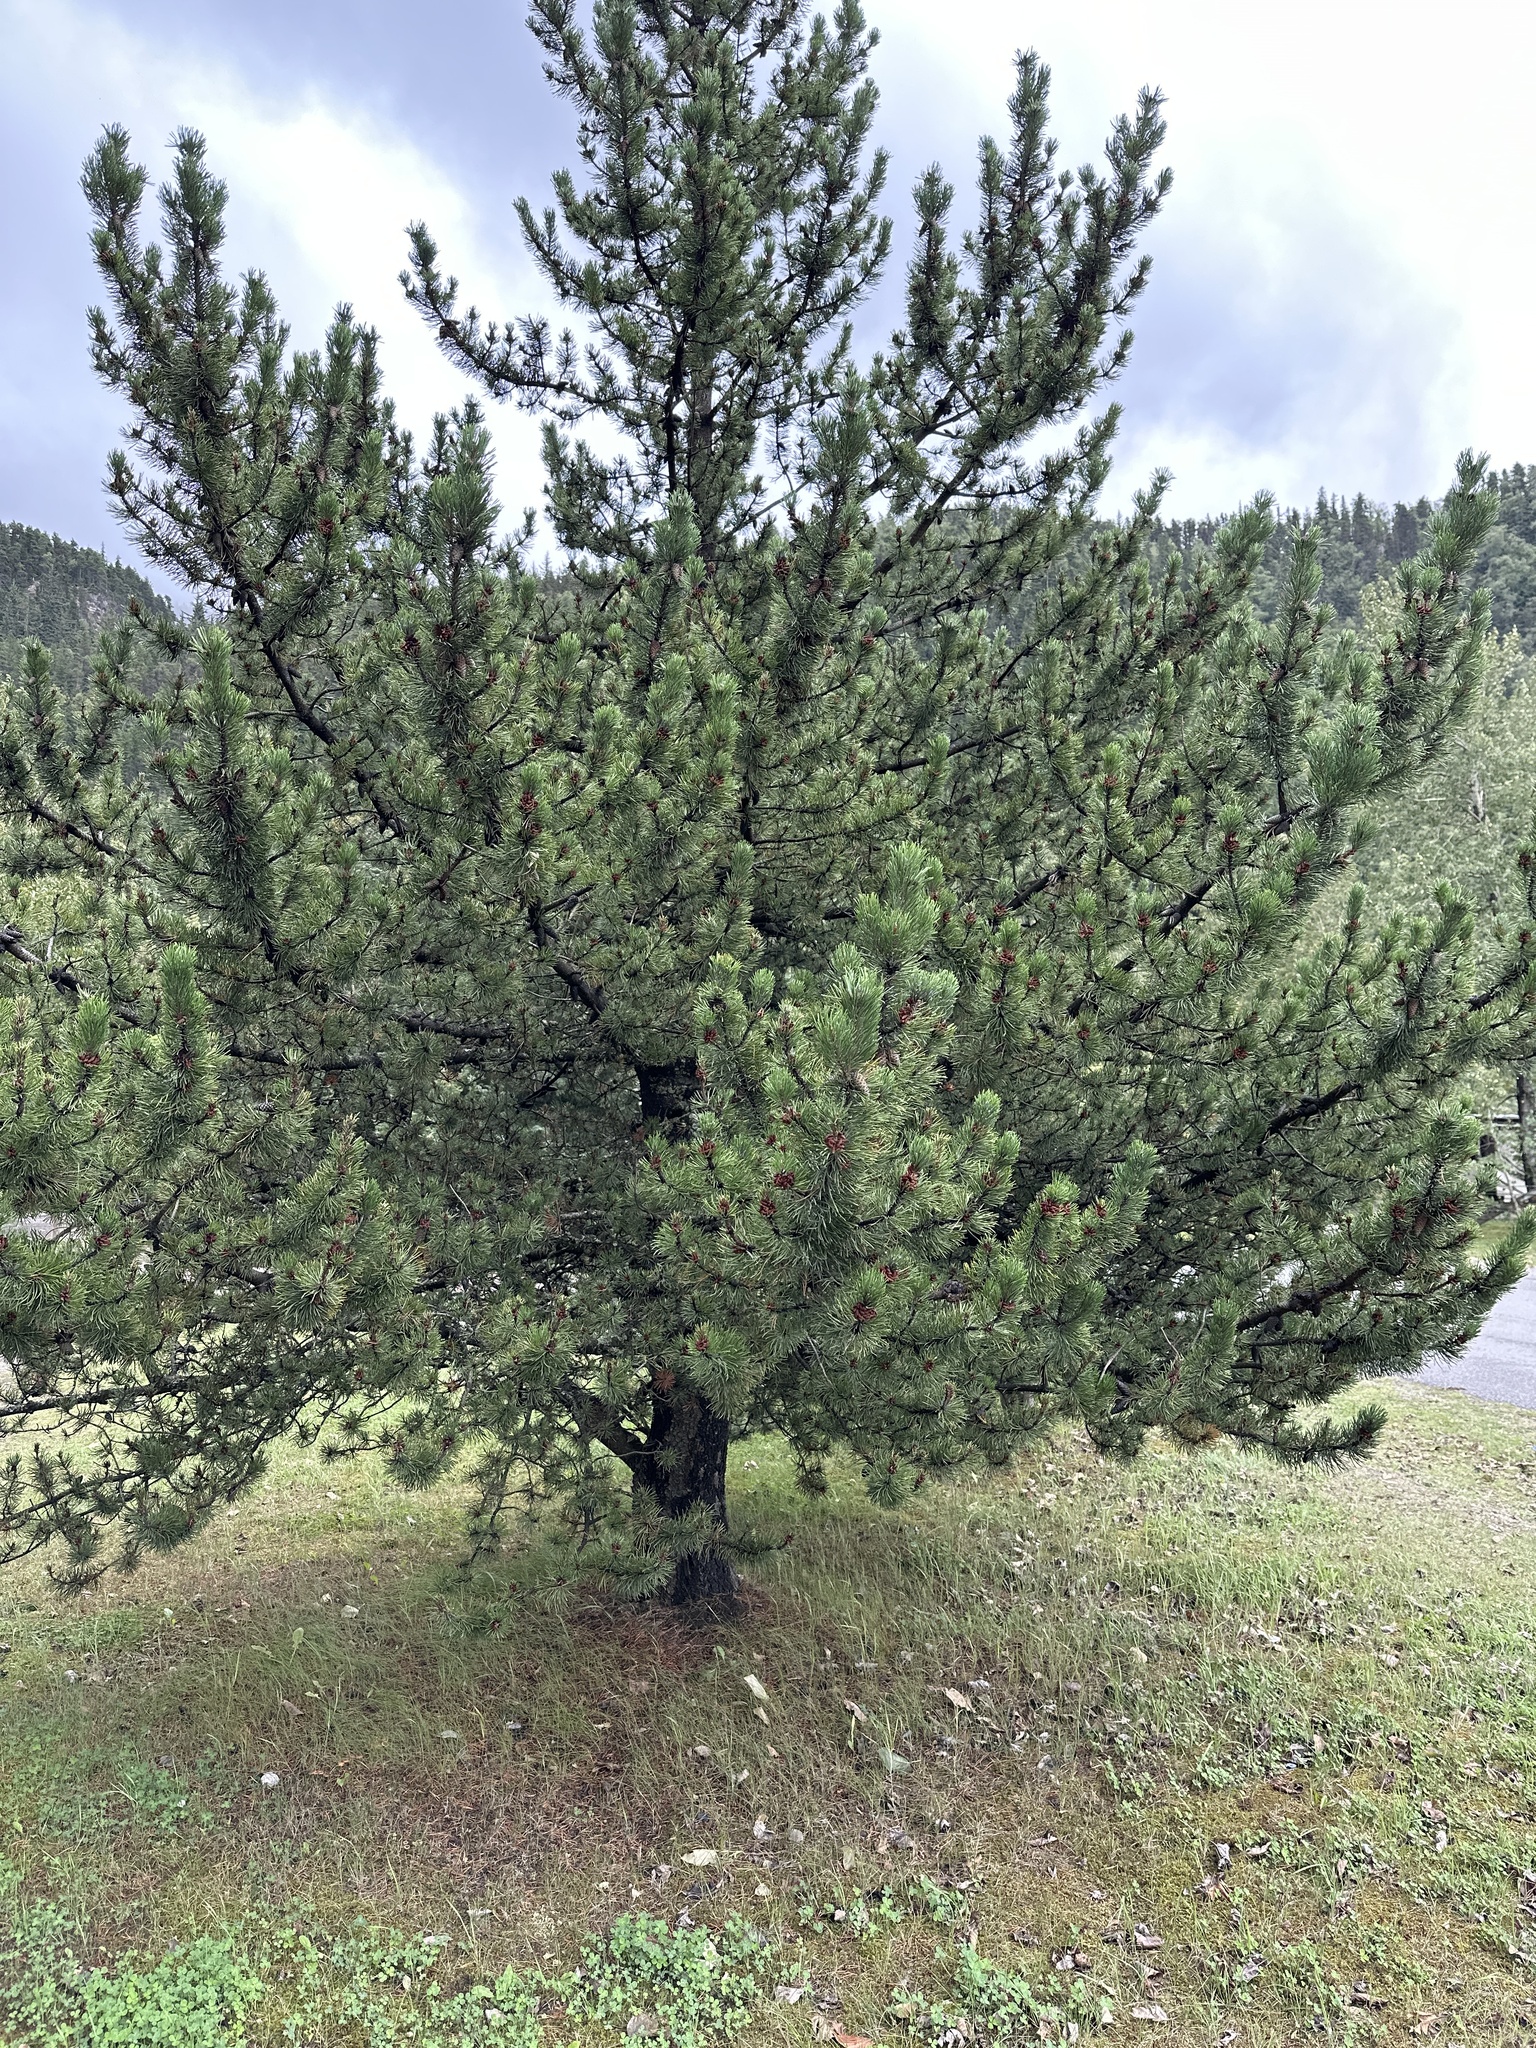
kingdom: Plantae
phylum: Tracheophyta
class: Pinopsida
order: Pinales
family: Pinaceae
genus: Pinus
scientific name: Pinus contorta
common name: Lodgepole pine
